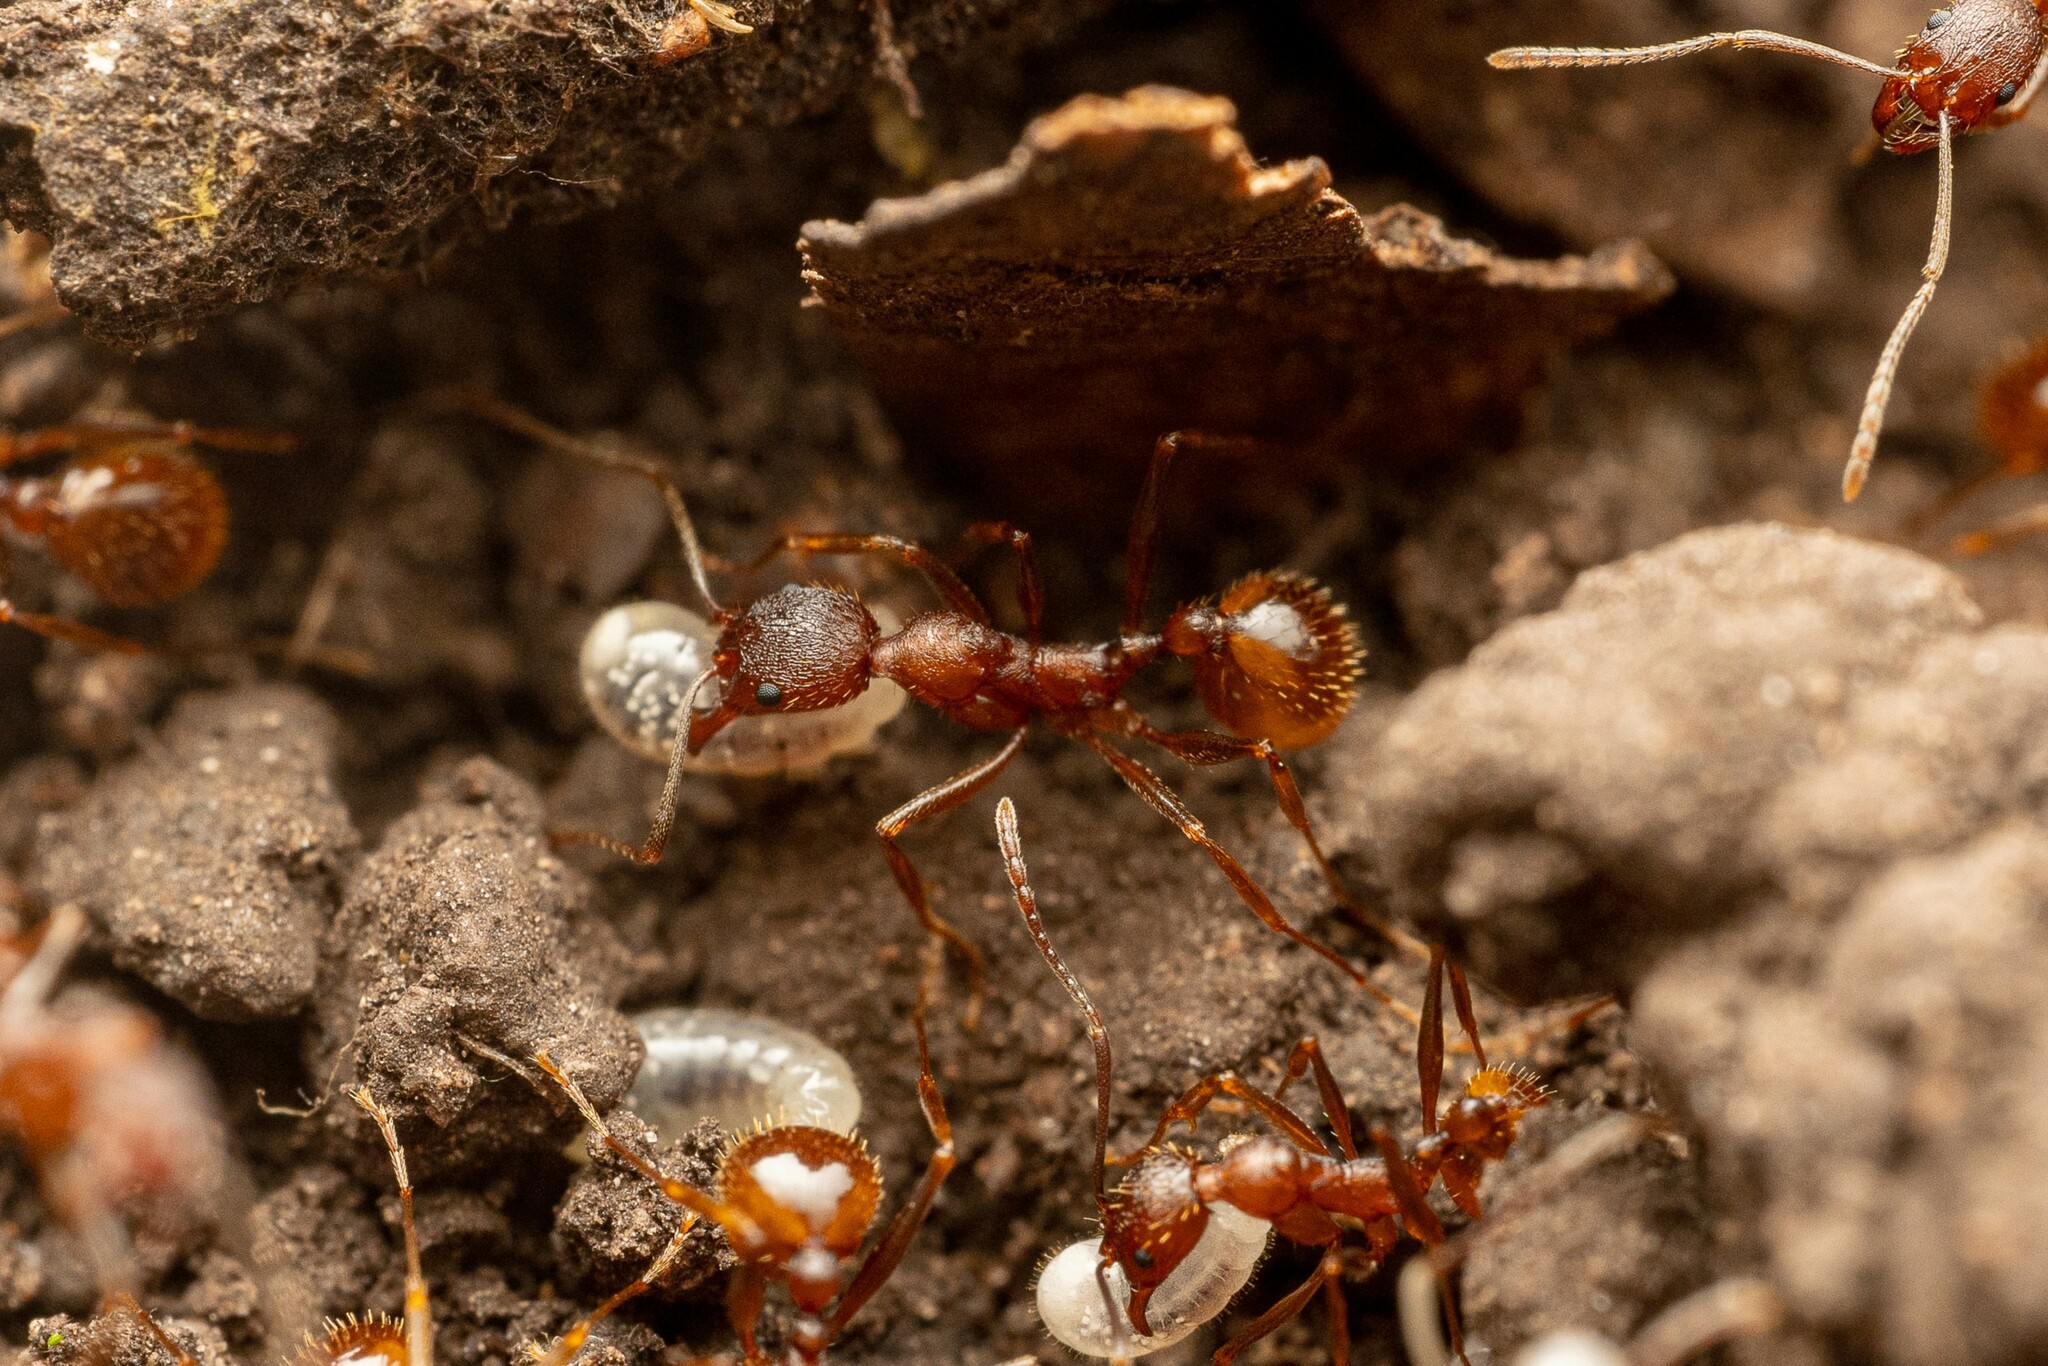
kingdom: Animalia
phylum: Arthropoda
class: Insecta
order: Hymenoptera
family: Formicidae
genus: Aphaenogaster
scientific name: Aphaenogaster texana
